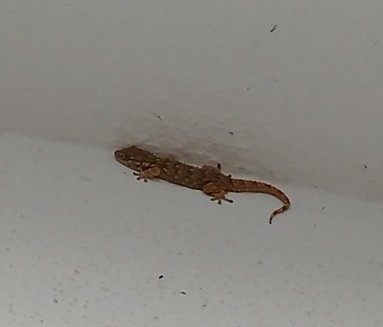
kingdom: Animalia
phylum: Chordata
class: Squamata
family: Phyllodactylidae
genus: Tarentola
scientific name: Tarentola mauritanica
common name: Moorish gecko
